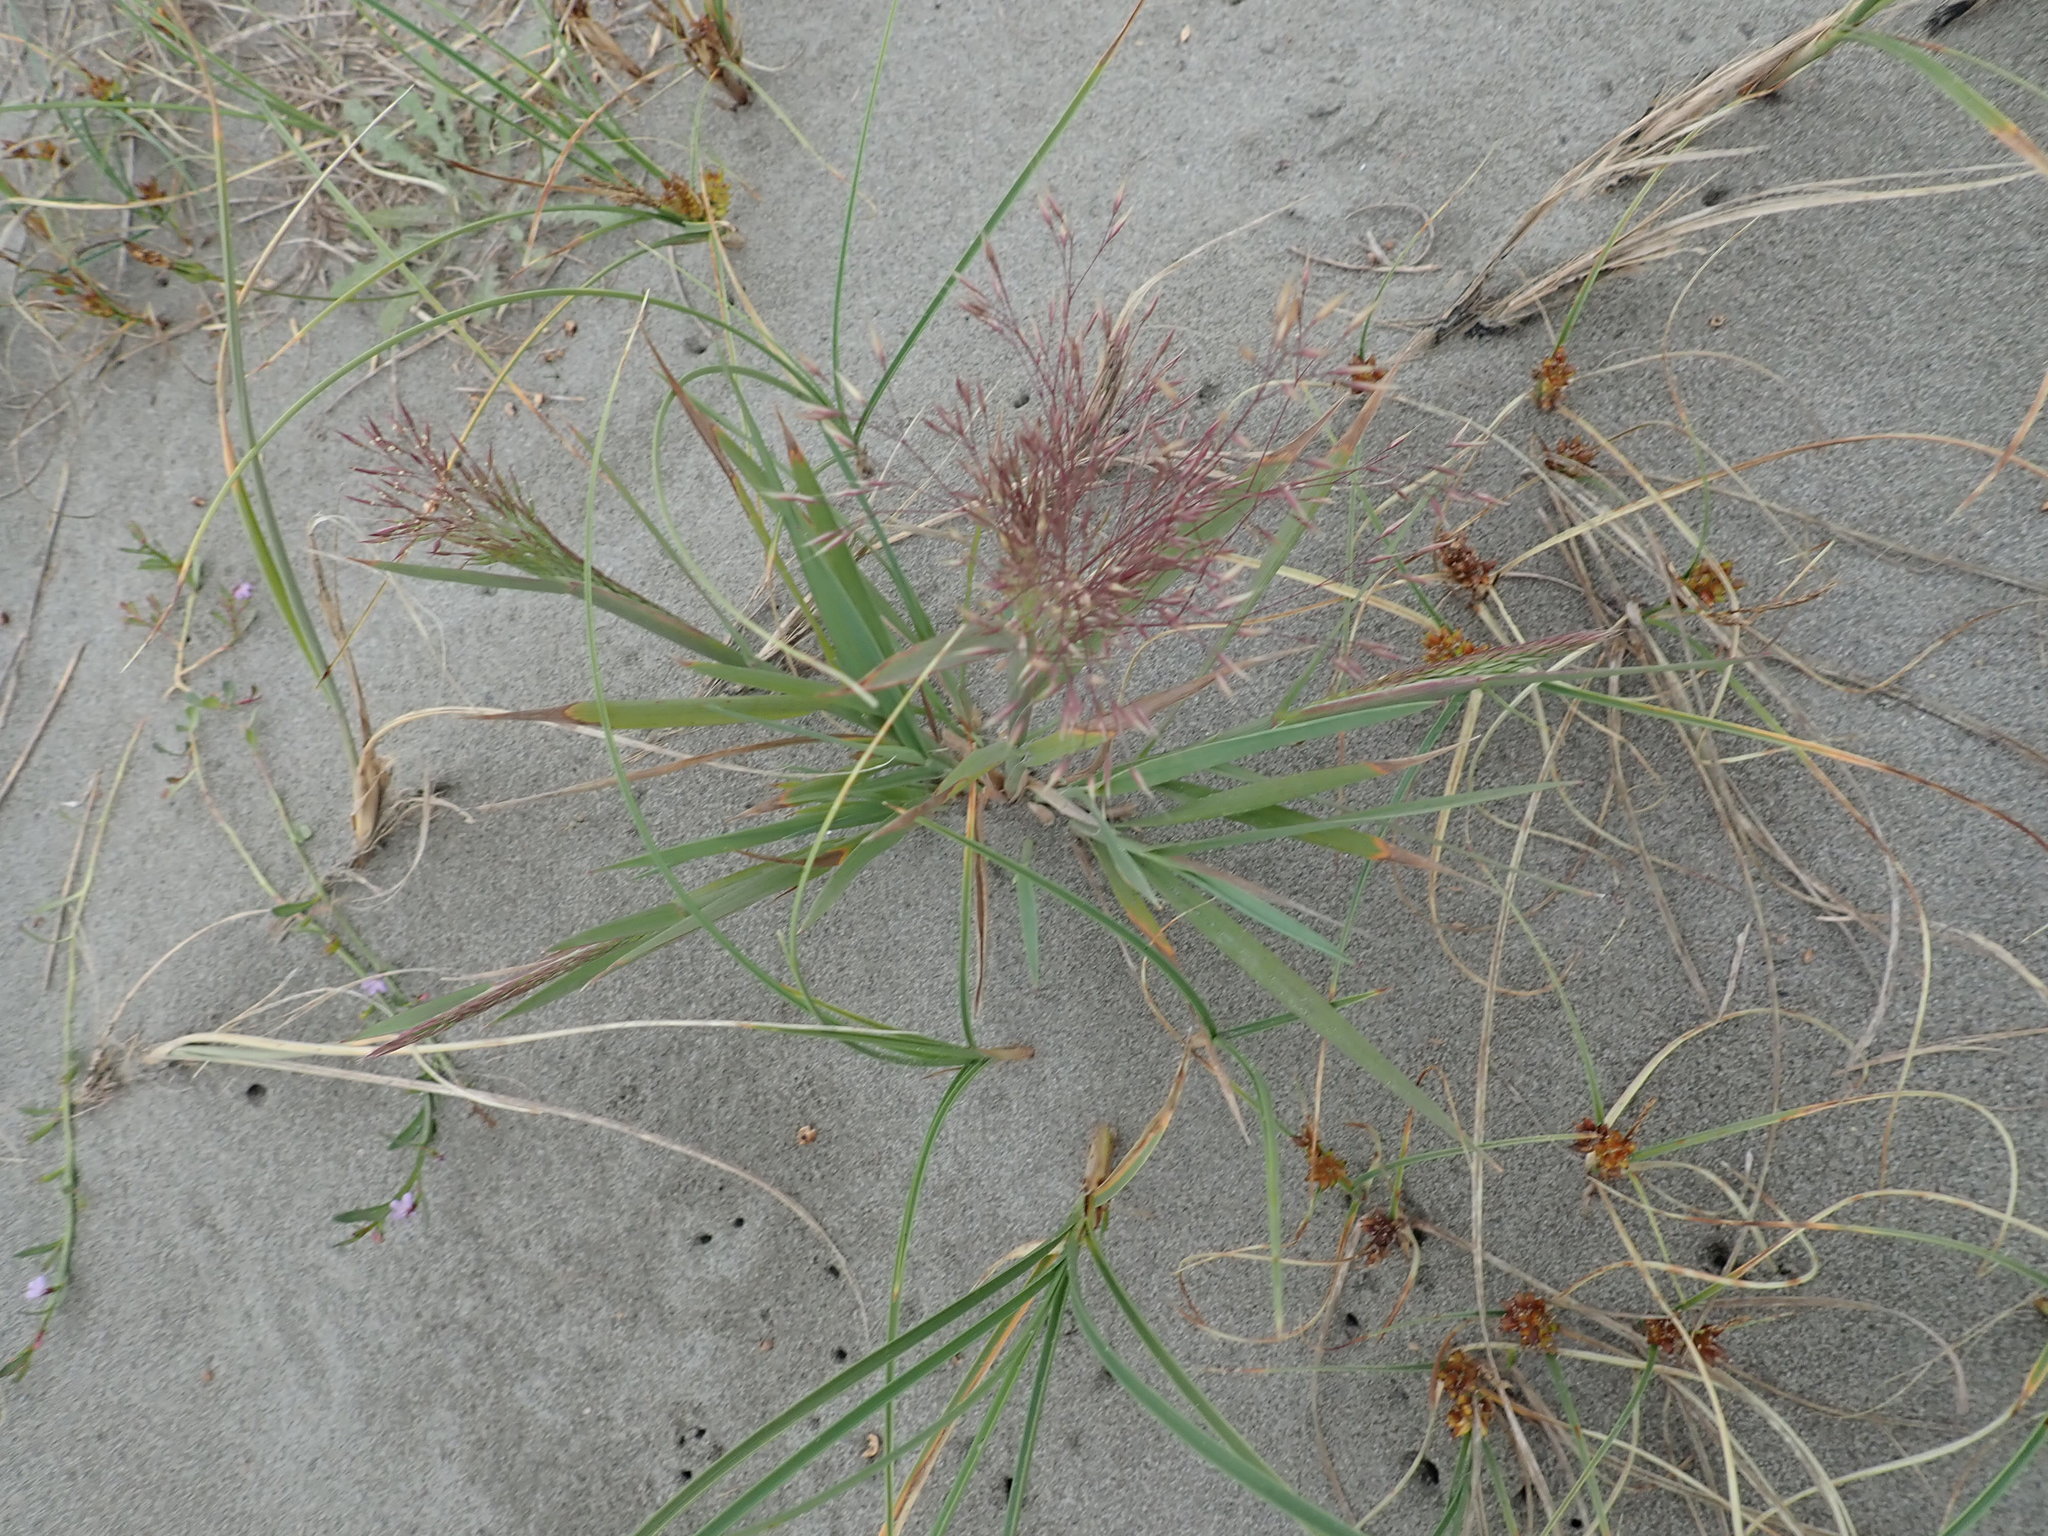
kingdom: Plantae
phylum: Tracheophyta
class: Liliopsida
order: Poales
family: Poaceae
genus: Lachnagrostis
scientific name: Lachnagrostis billardierei
